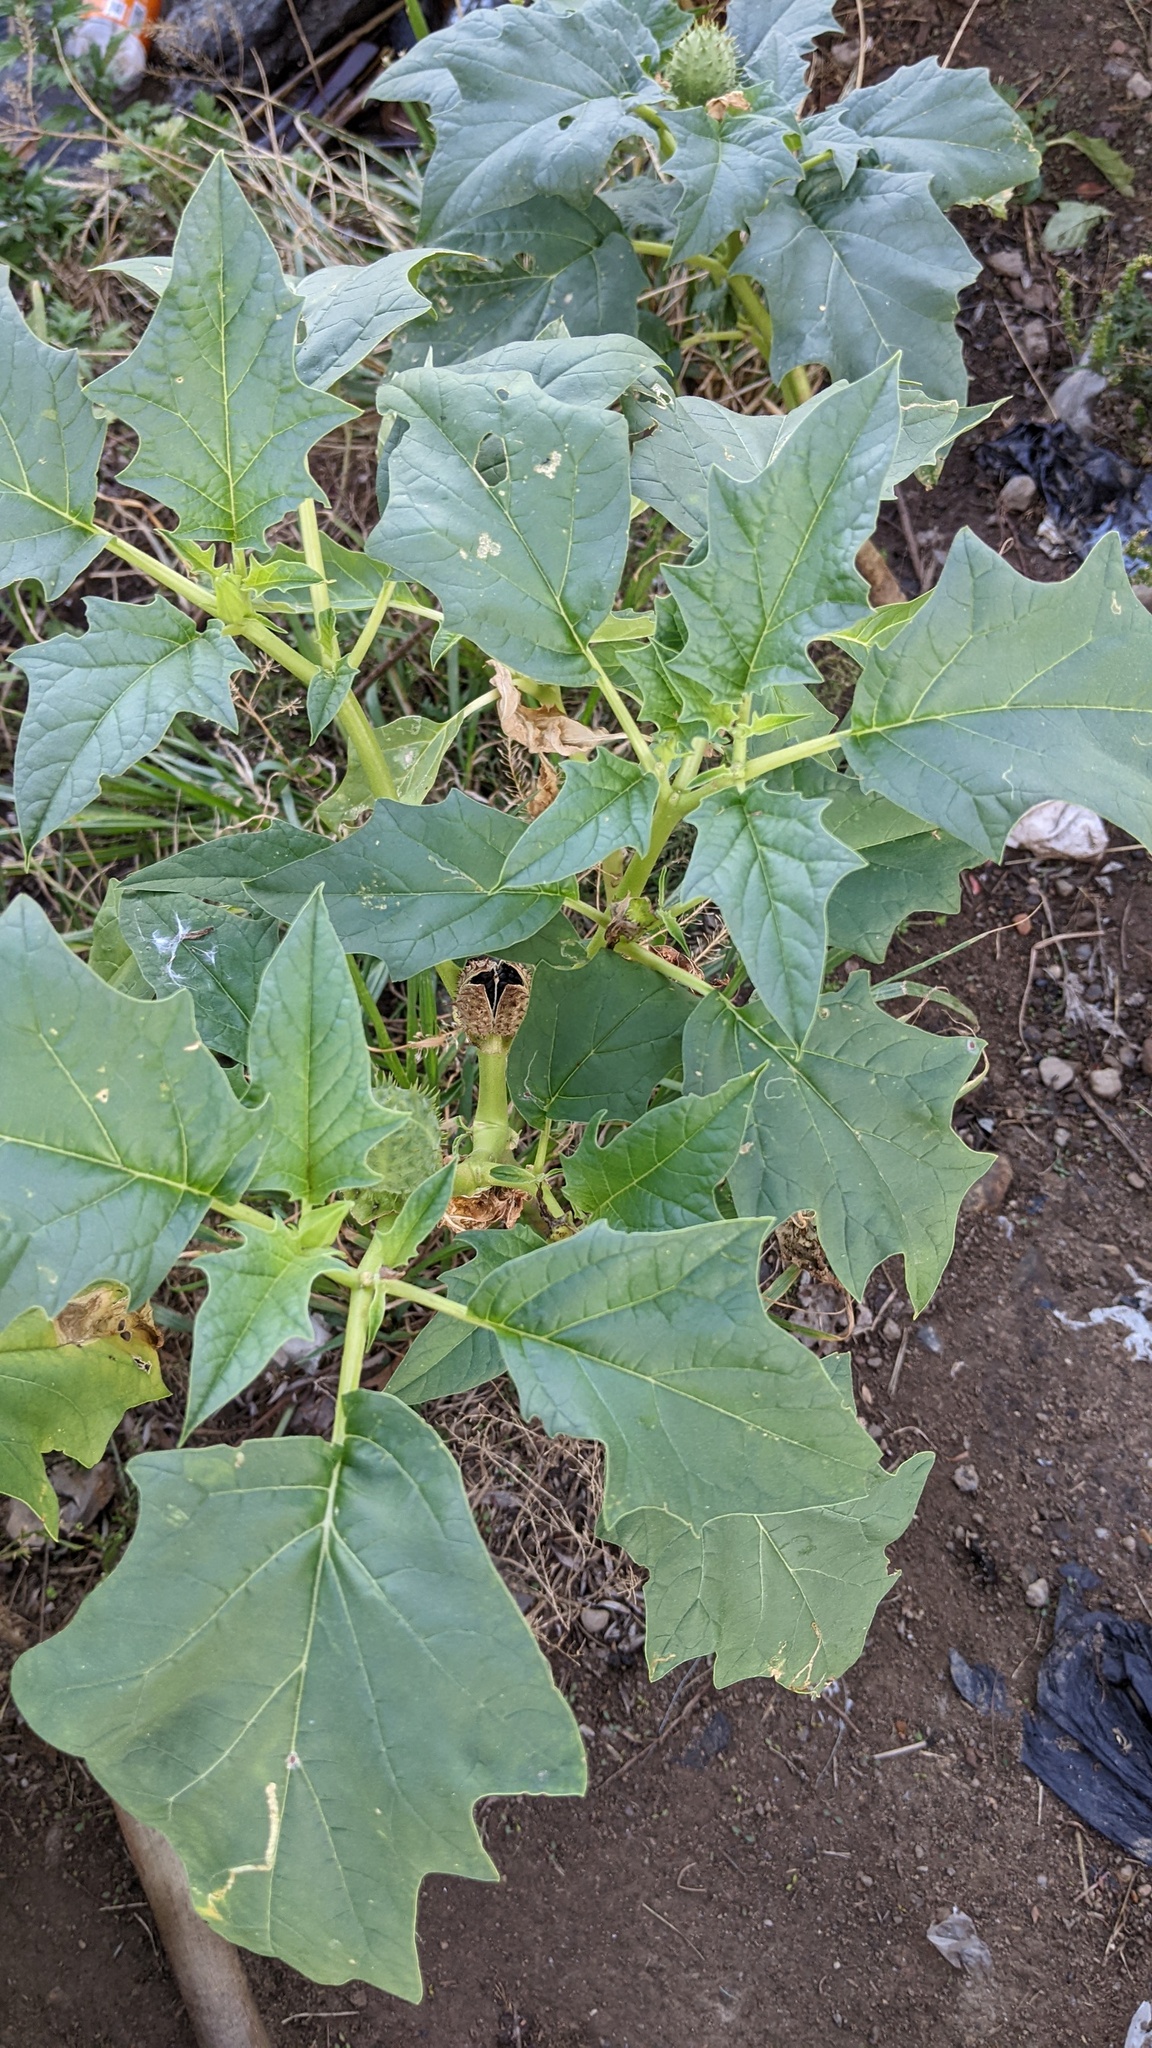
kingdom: Plantae
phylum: Tracheophyta
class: Magnoliopsida
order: Solanales
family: Solanaceae
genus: Datura
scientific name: Datura stramonium
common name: Thorn-apple
